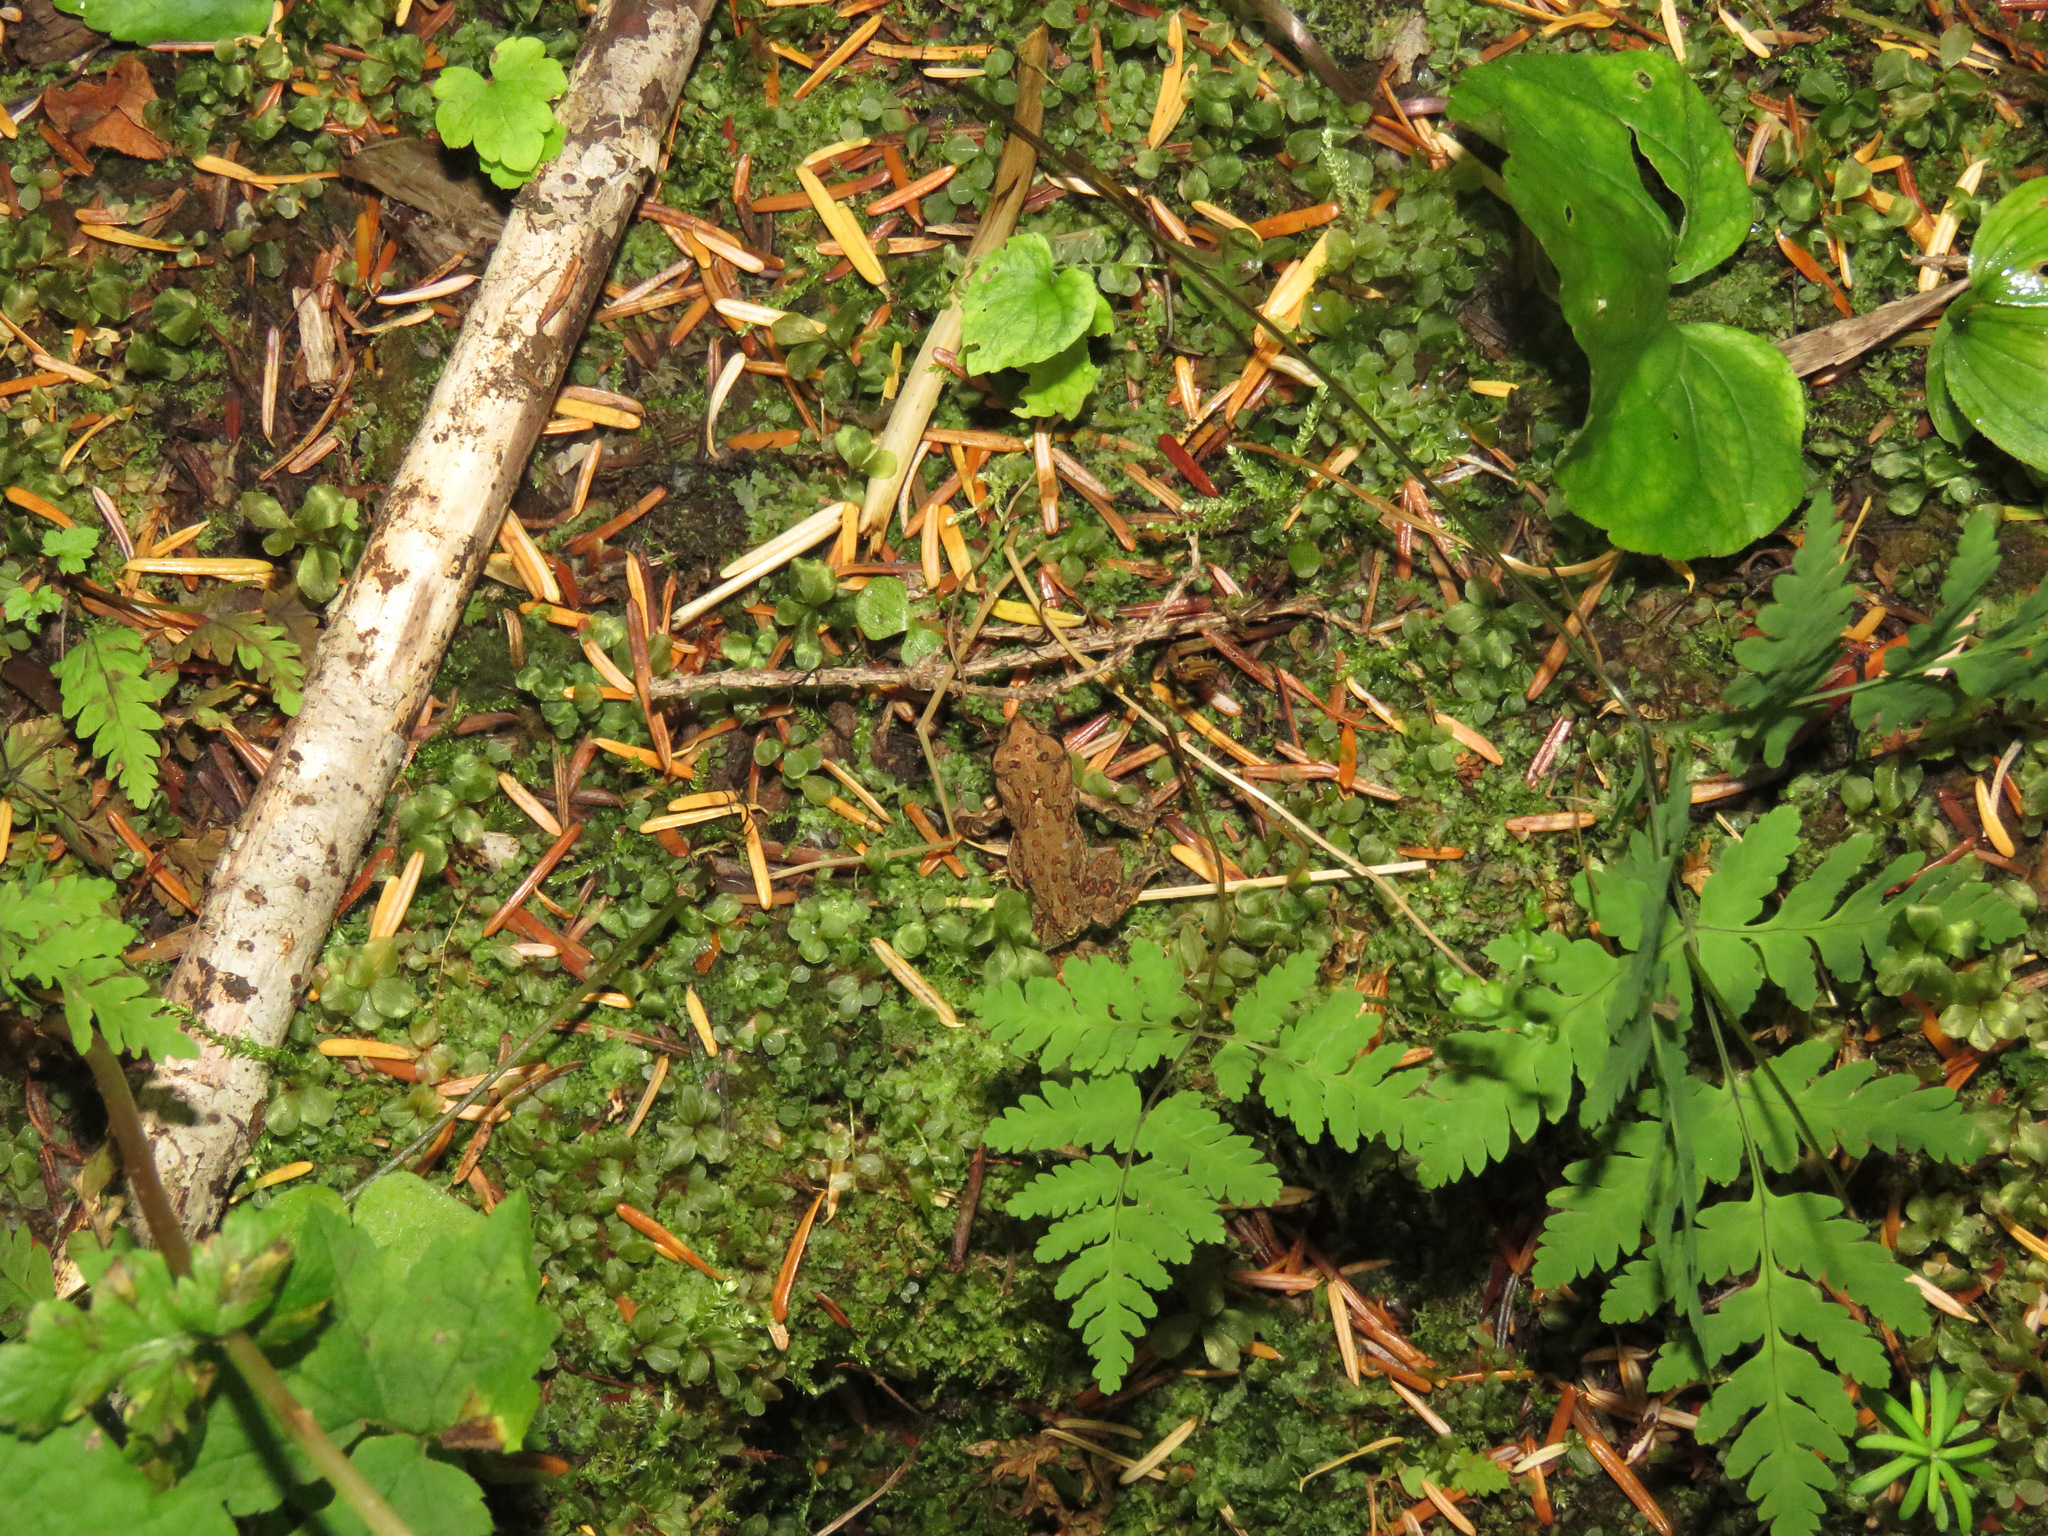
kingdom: Animalia
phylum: Chordata
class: Amphibia
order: Anura
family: Bufonidae
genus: Anaxyrus
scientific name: Anaxyrus boreas
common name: Western toad
